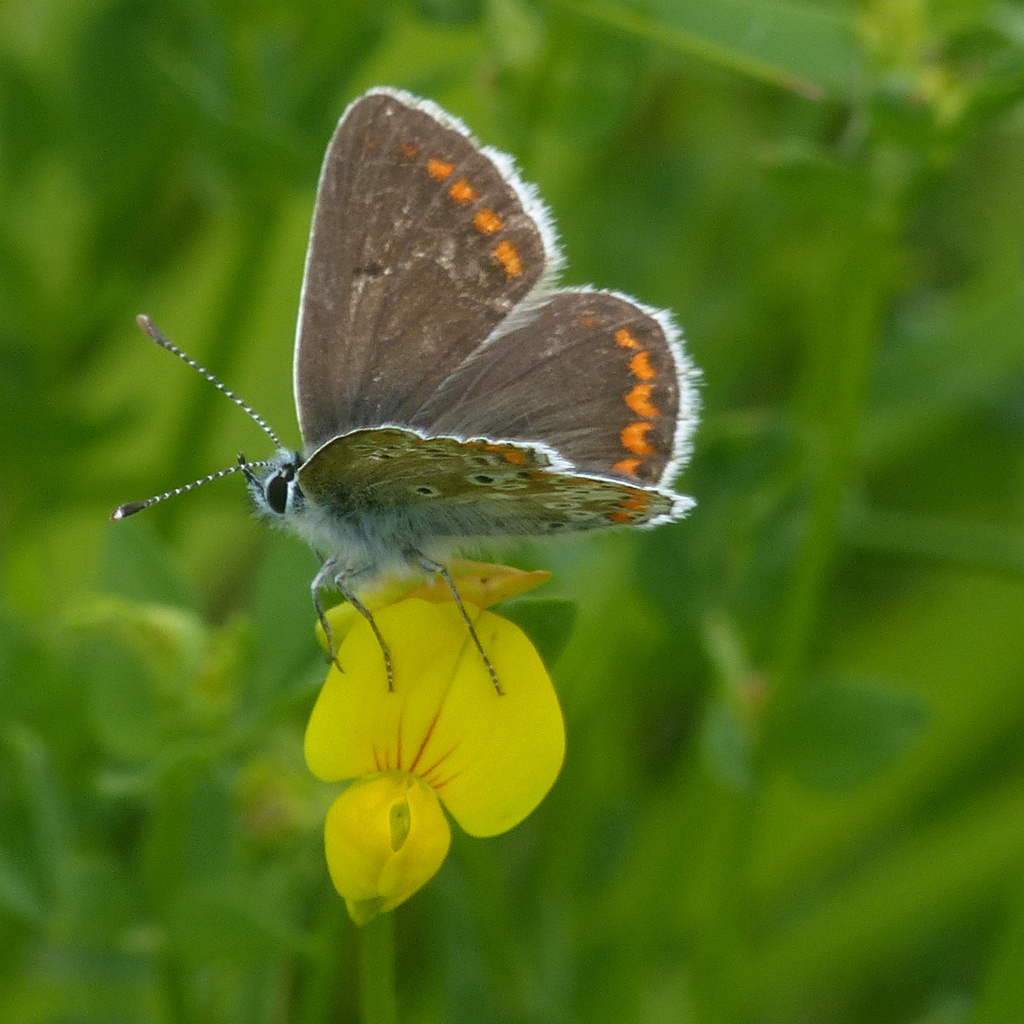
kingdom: Animalia
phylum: Arthropoda
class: Insecta
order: Lepidoptera
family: Lycaenidae
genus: Aricia
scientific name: Aricia agestis
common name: Brown argus
